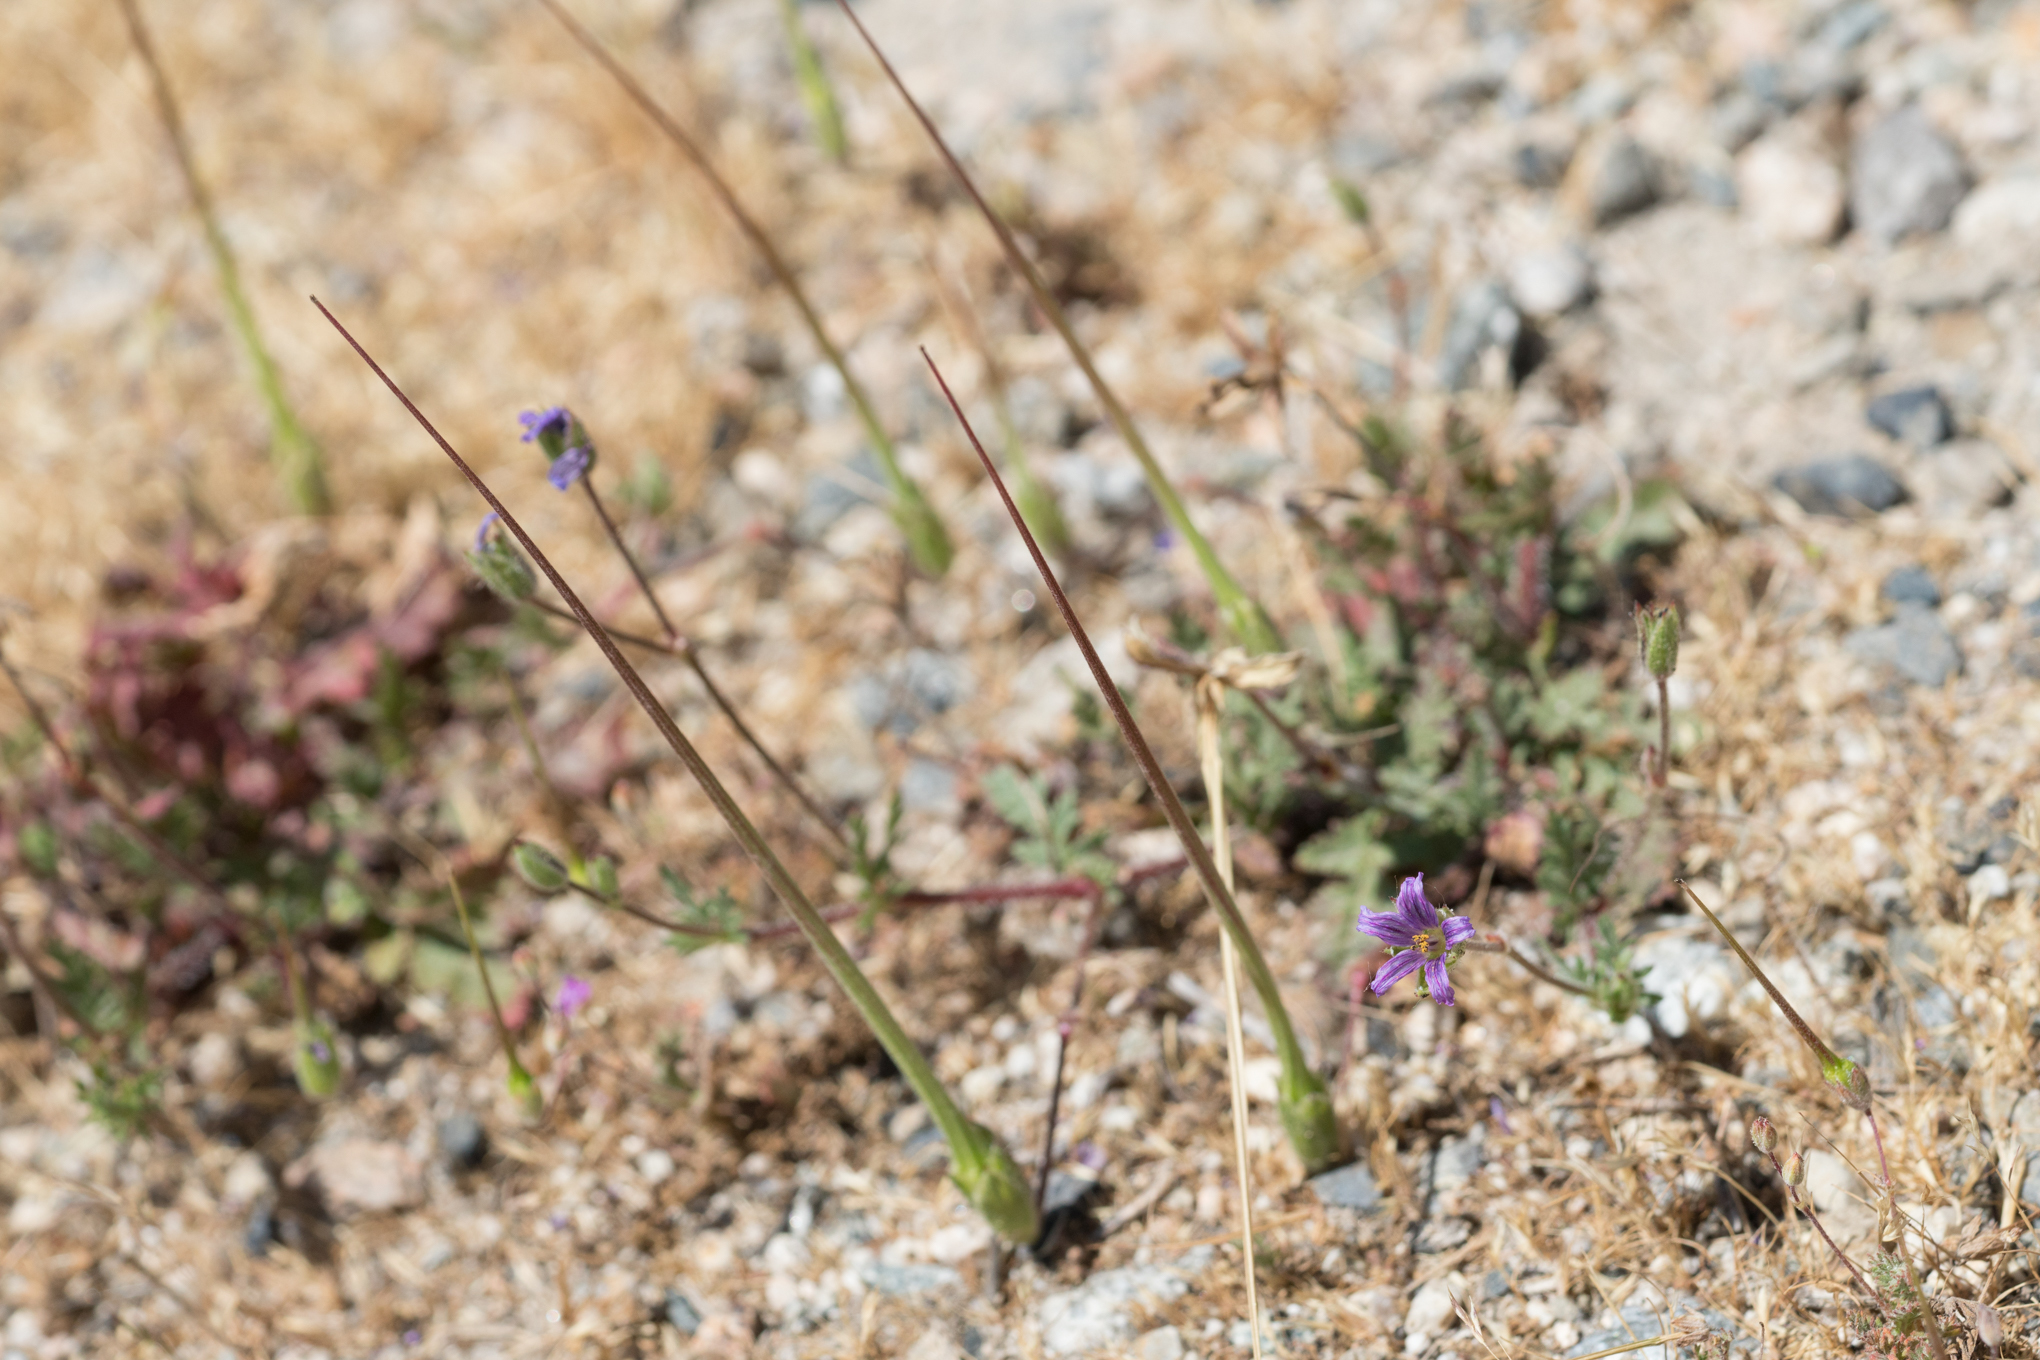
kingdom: Plantae
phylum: Tracheophyta
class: Magnoliopsida
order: Geraniales
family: Geraniaceae
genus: Erodium
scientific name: Erodium botrys
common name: Mediterranean stork's-bill
